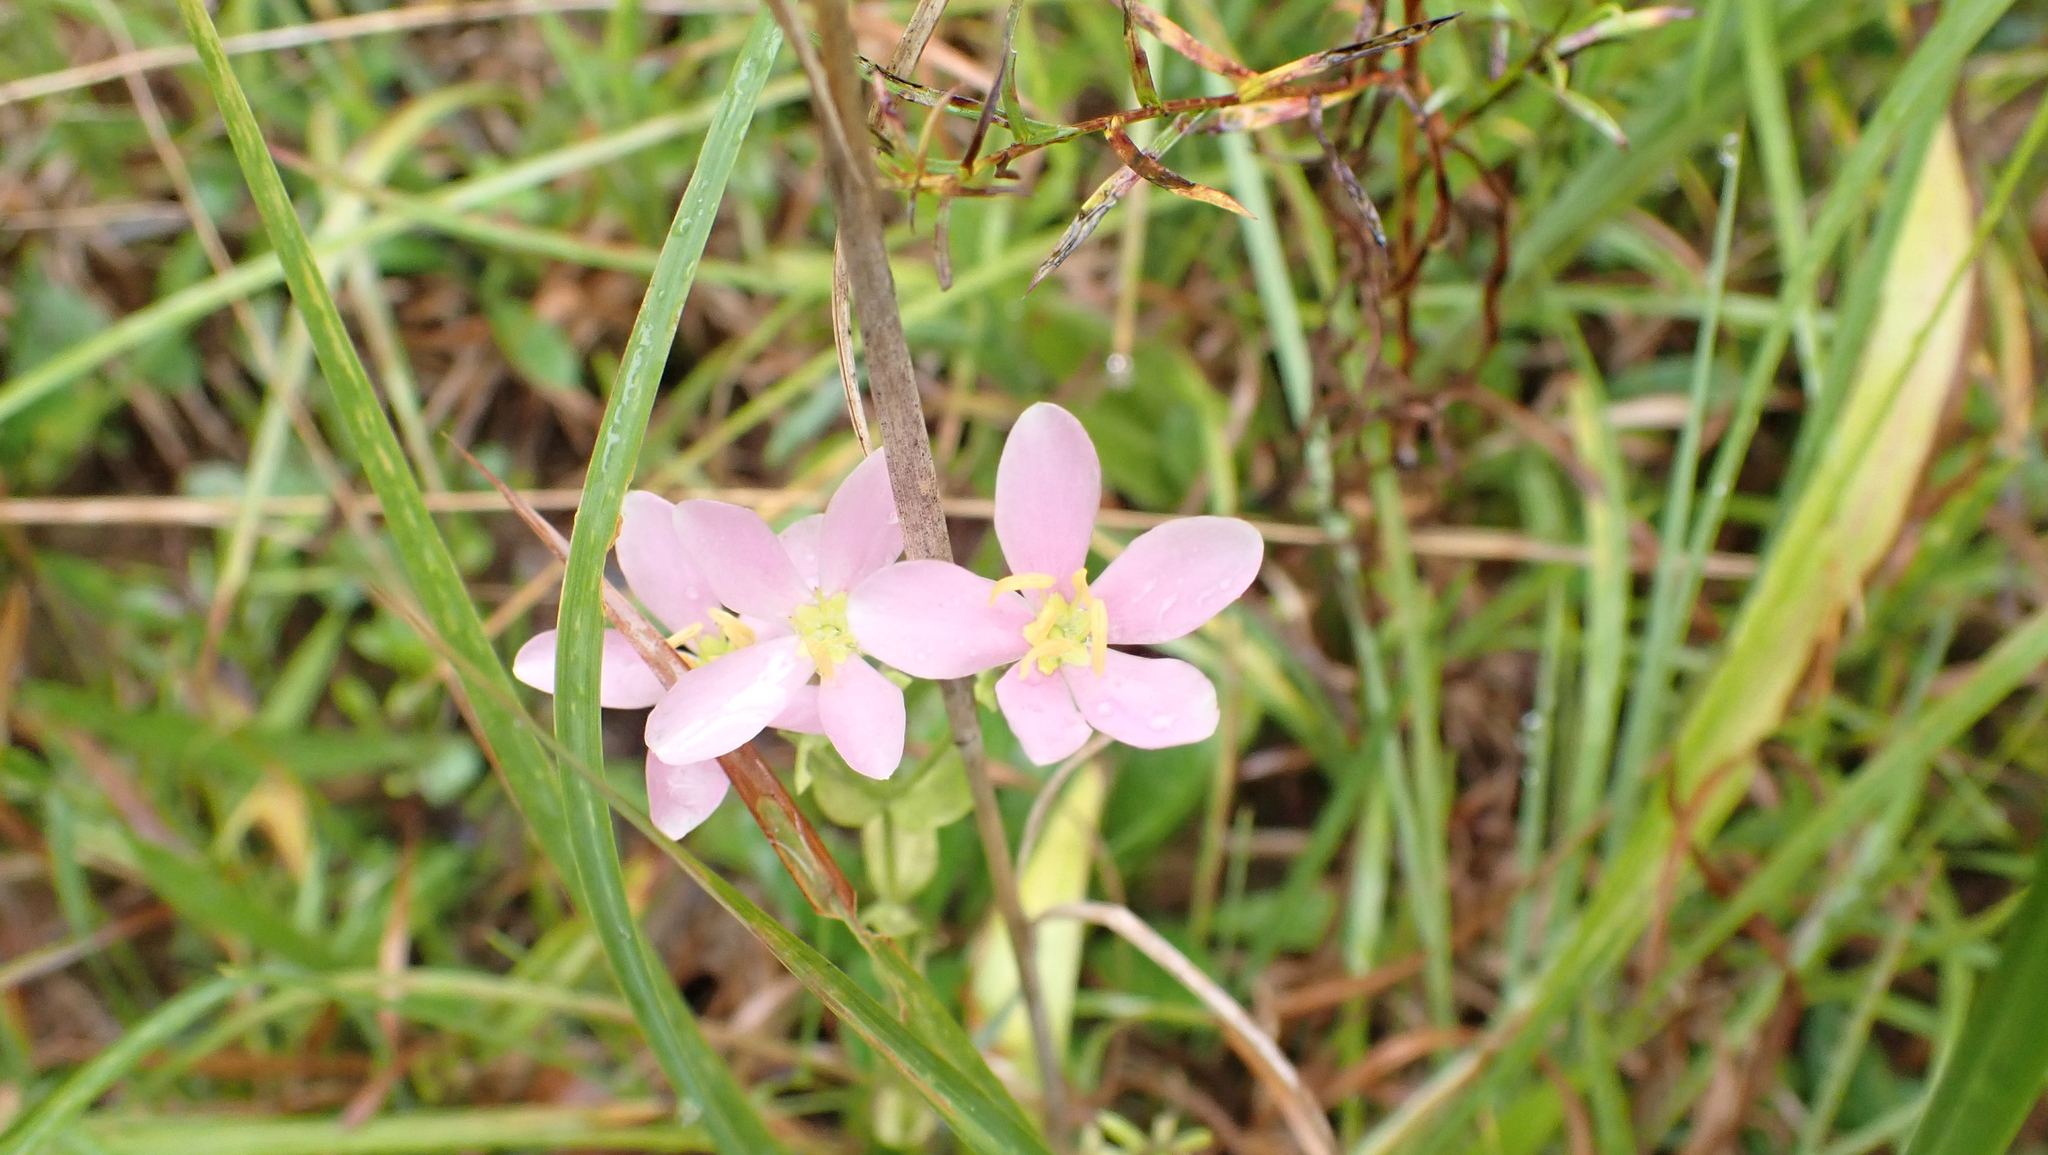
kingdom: Plantae
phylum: Tracheophyta
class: Magnoliopsida
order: Gentianales
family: Gentianaceae
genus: Sabatia
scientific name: Sabatia angularis
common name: Rose-pink
